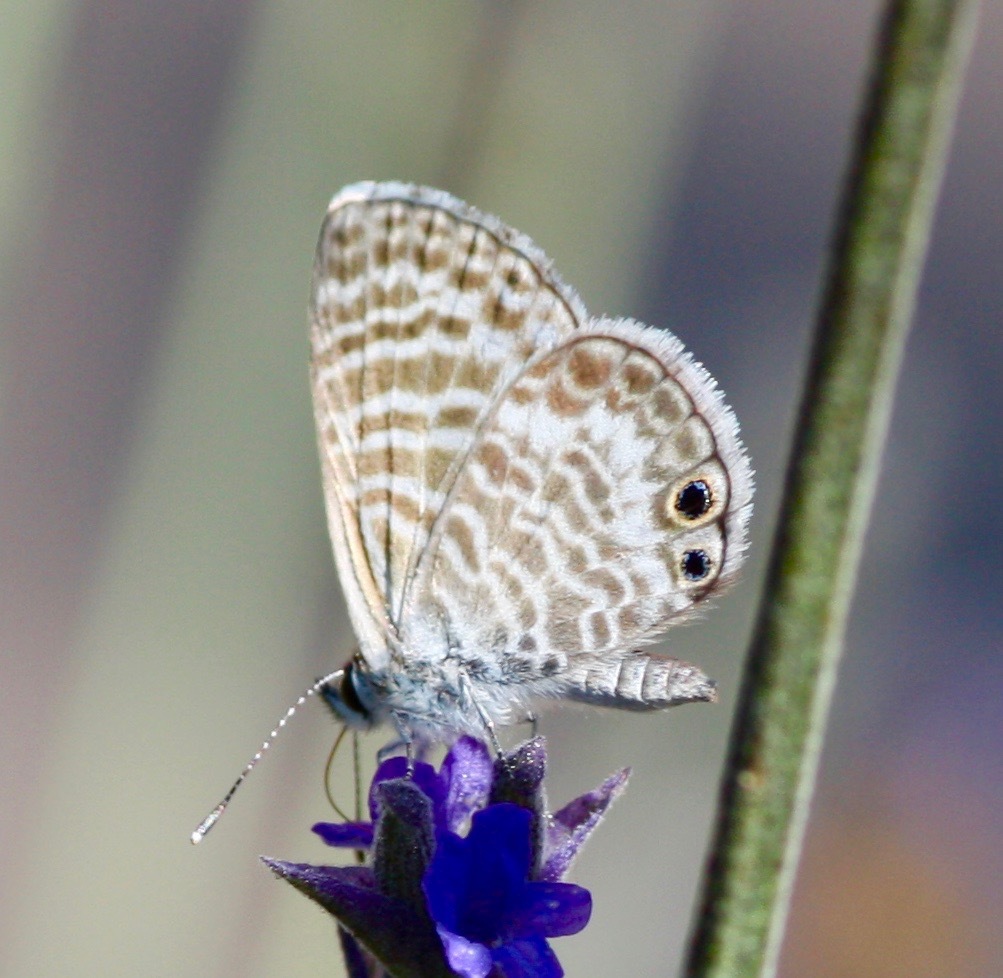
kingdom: Animalia
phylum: Arthropoda
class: Insecta
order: Lepidoptera
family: Lycaenidae
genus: Leptotes
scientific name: Leptotes marina
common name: Marine blue
